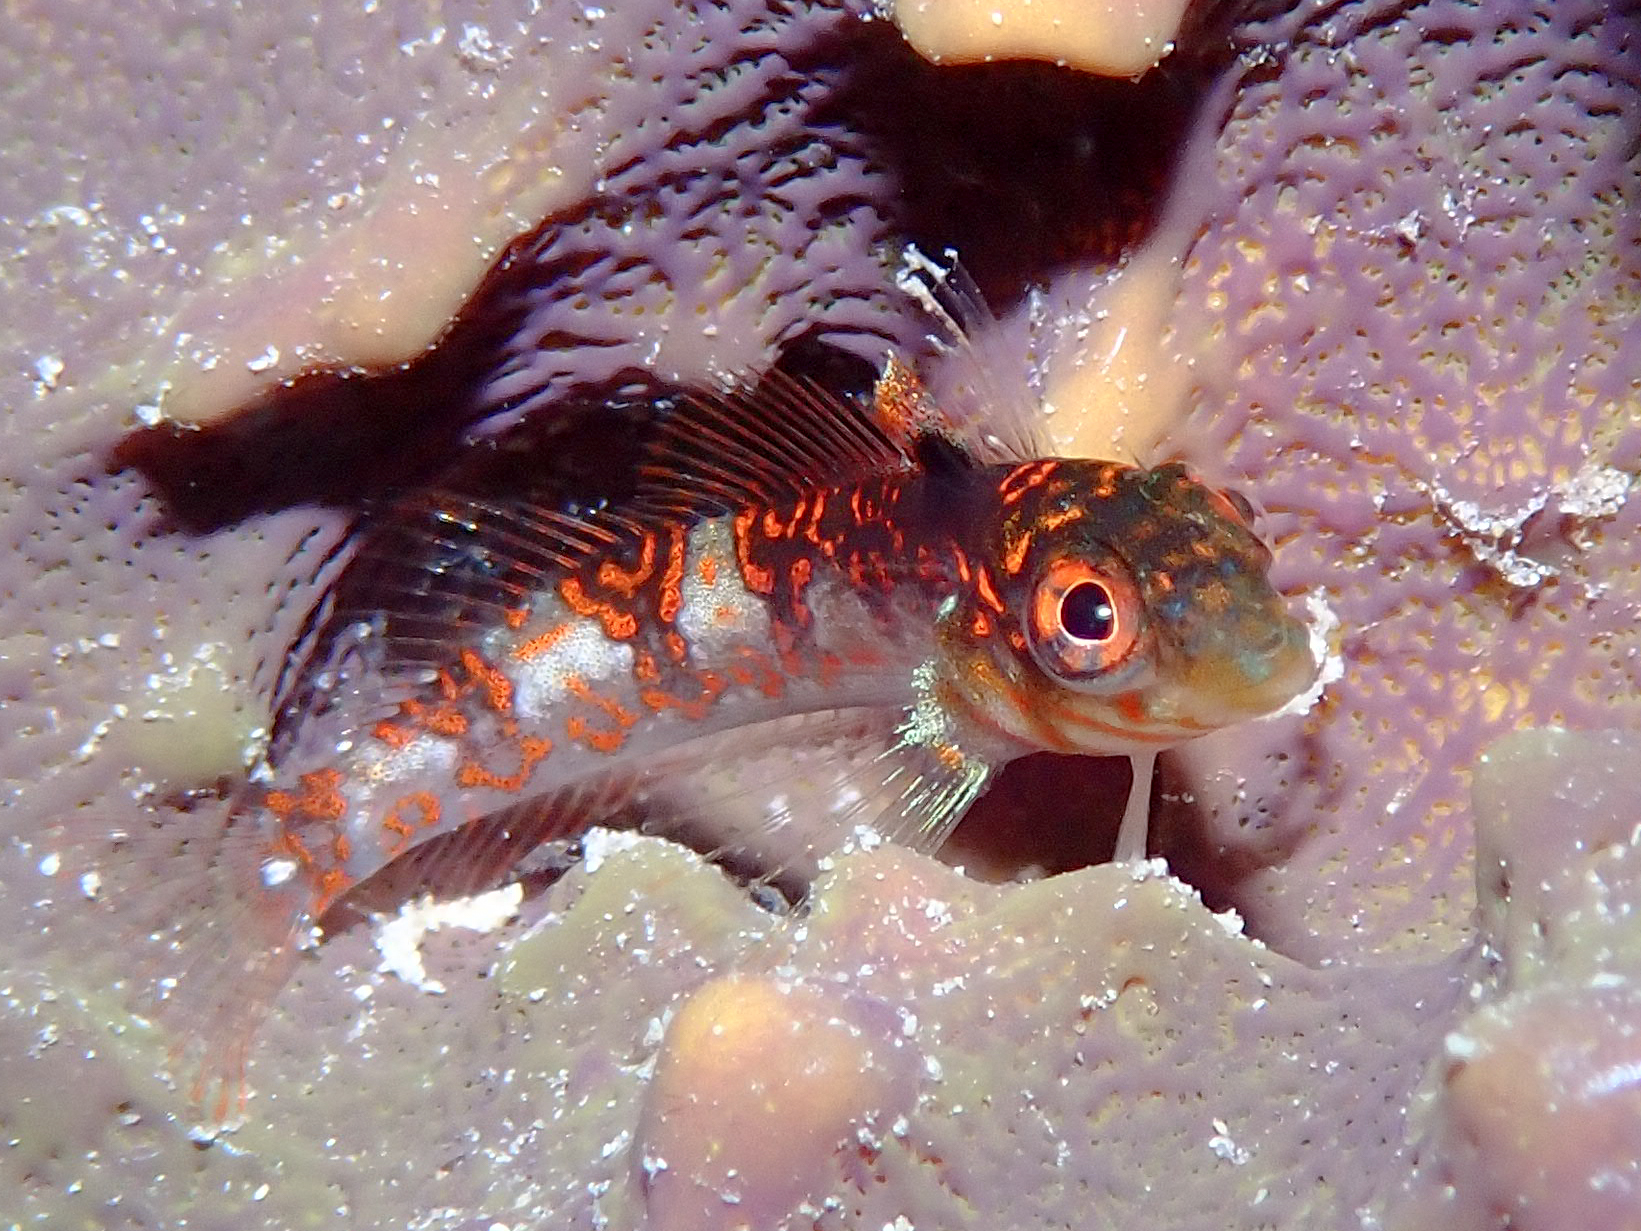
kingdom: Animalia
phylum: Chordata
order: Perciformes
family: Labrisomidae
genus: Malacoctenus
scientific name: Malacoctenus triangulatus
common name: Saddled blenny
